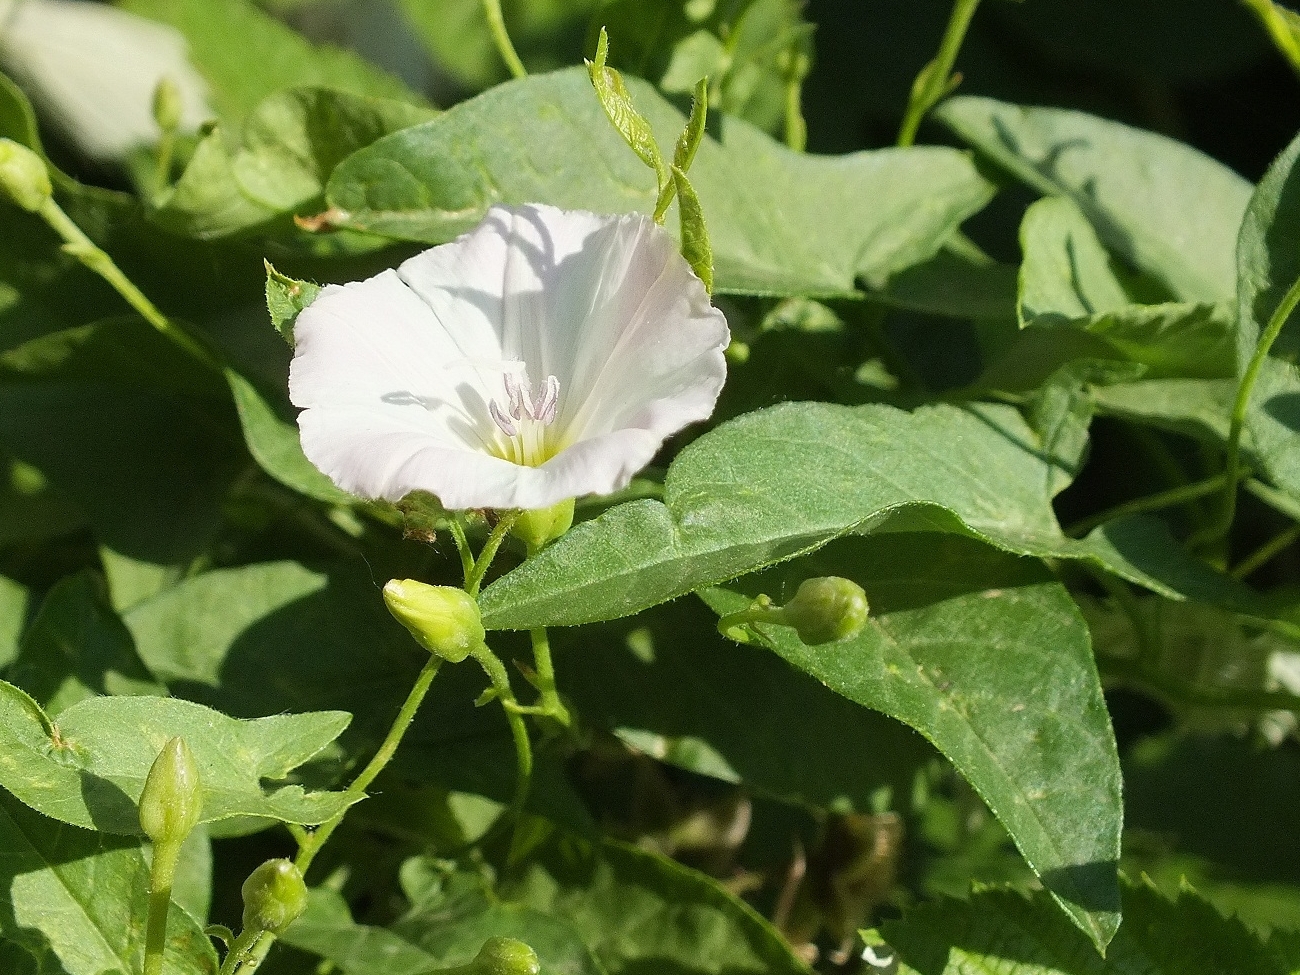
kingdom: Plantae
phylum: Tracheophyta
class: Magnoliopsida
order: Solanales
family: Convolvulaceae
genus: Convolvulus
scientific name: Convolvulus arvensis
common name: Field bindweed
